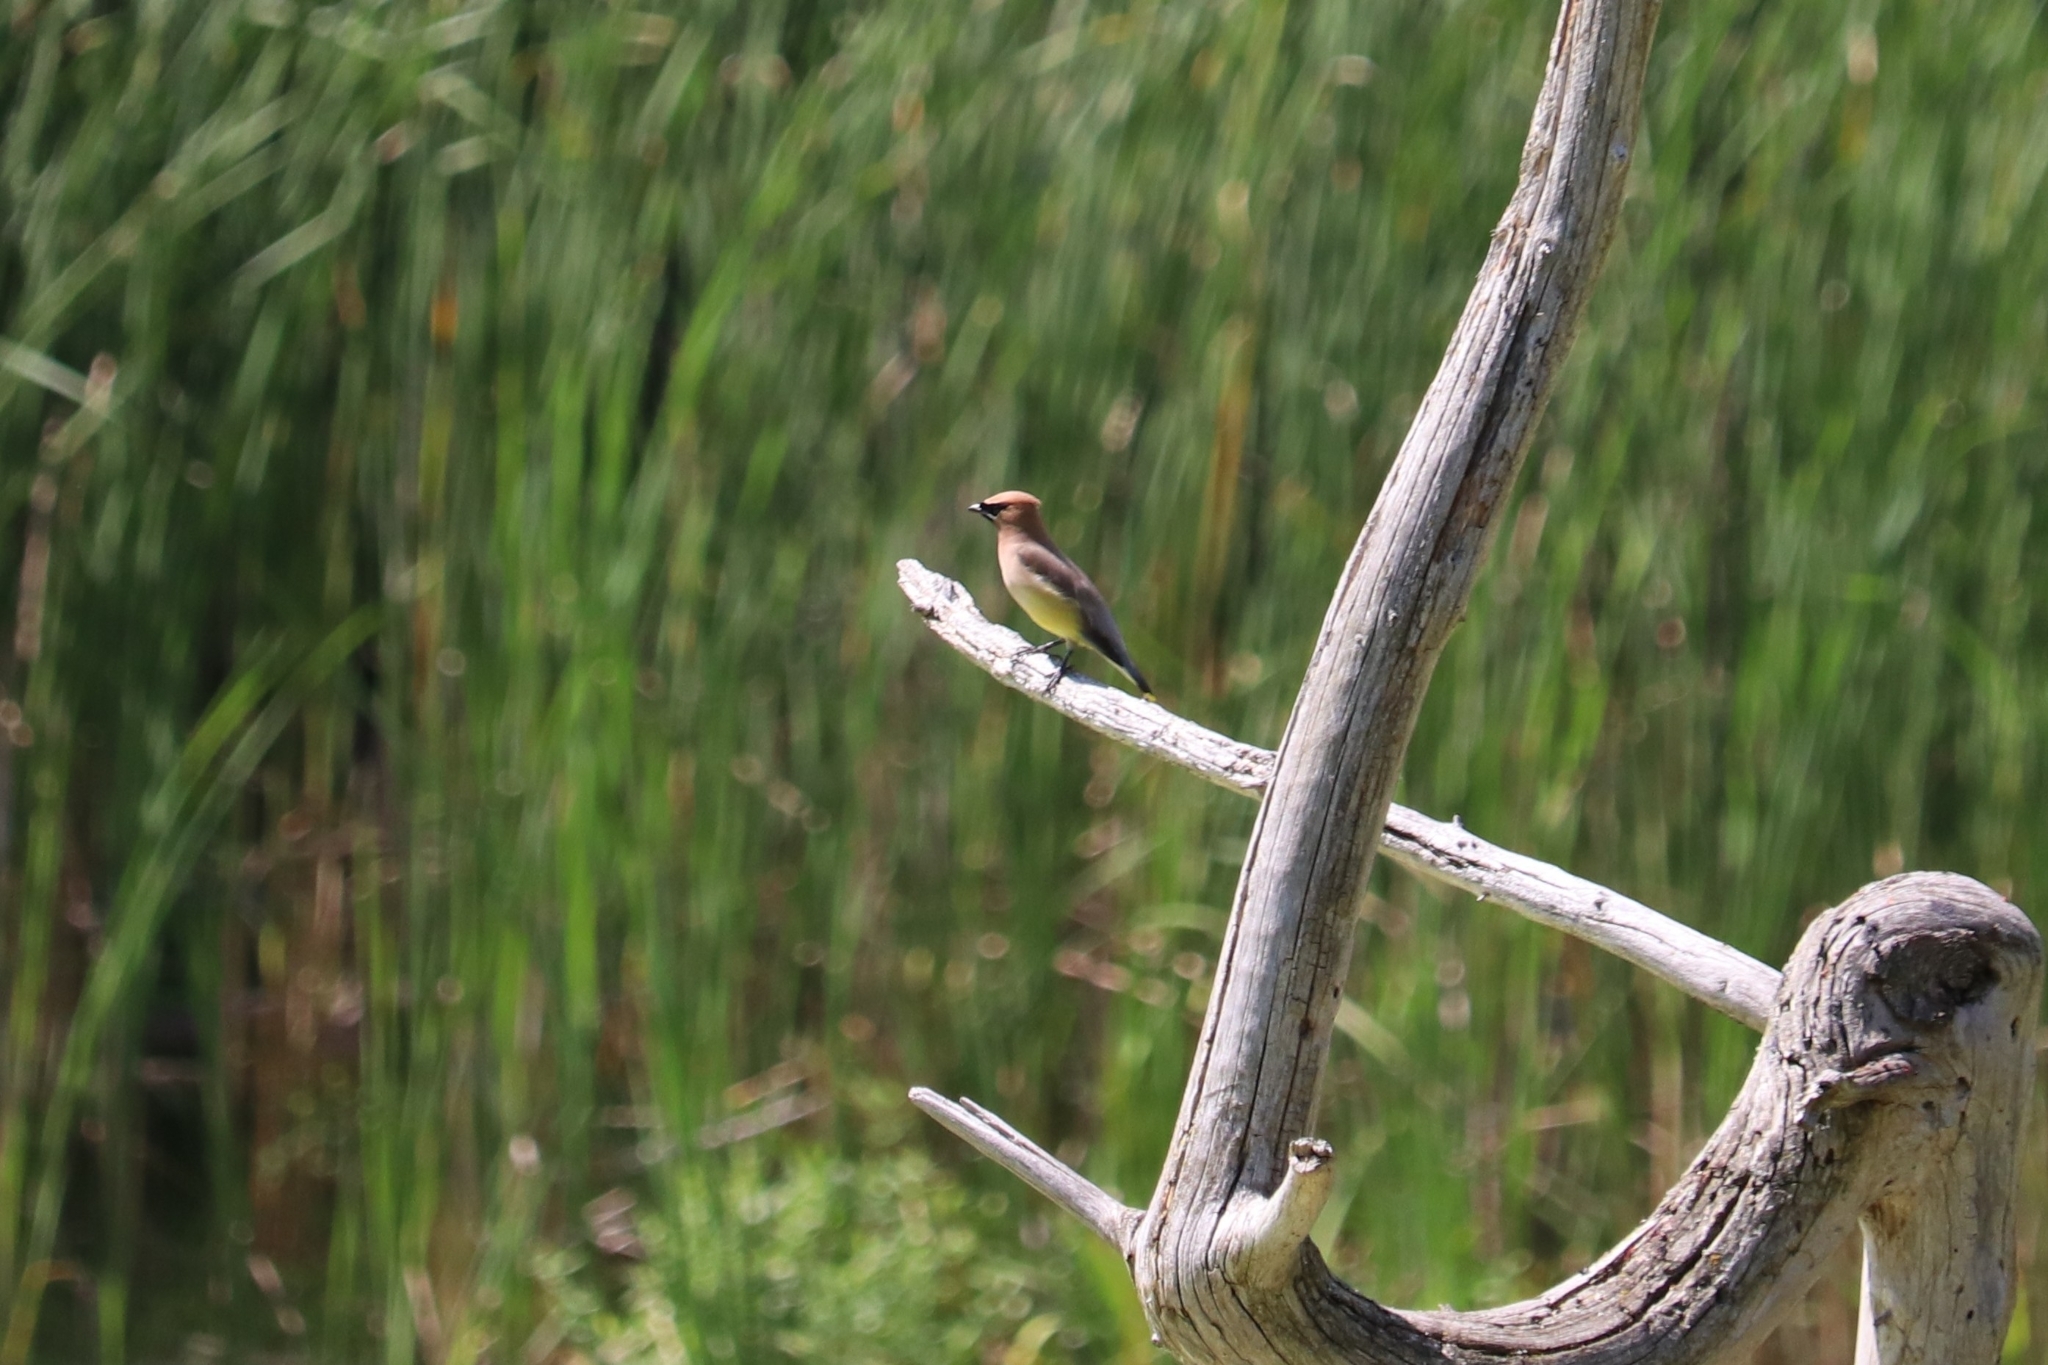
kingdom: Animalia
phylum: Chordata
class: Aves
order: Passeriformes
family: Bombycillidae
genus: Bombycilla
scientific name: Bombycilla cedrorum
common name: Cedar waxwing
